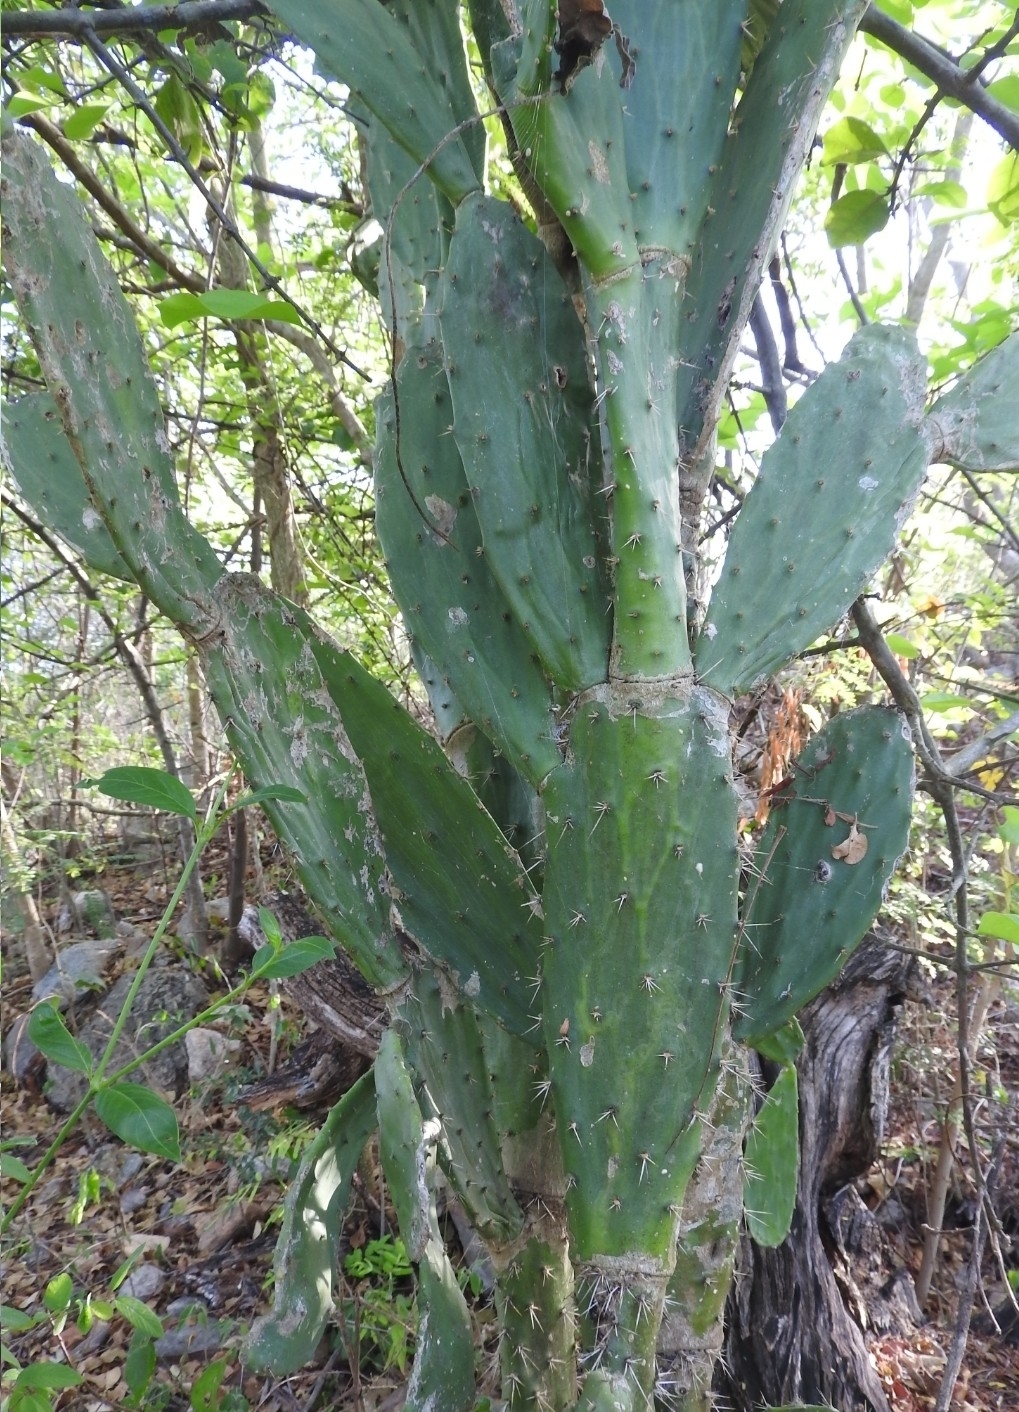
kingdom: Plantae
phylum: Tracheophyta
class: Magnoliopsida
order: Caryophyllales
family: Cactaceae
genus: Opuntia
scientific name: Opuntia inaperta
